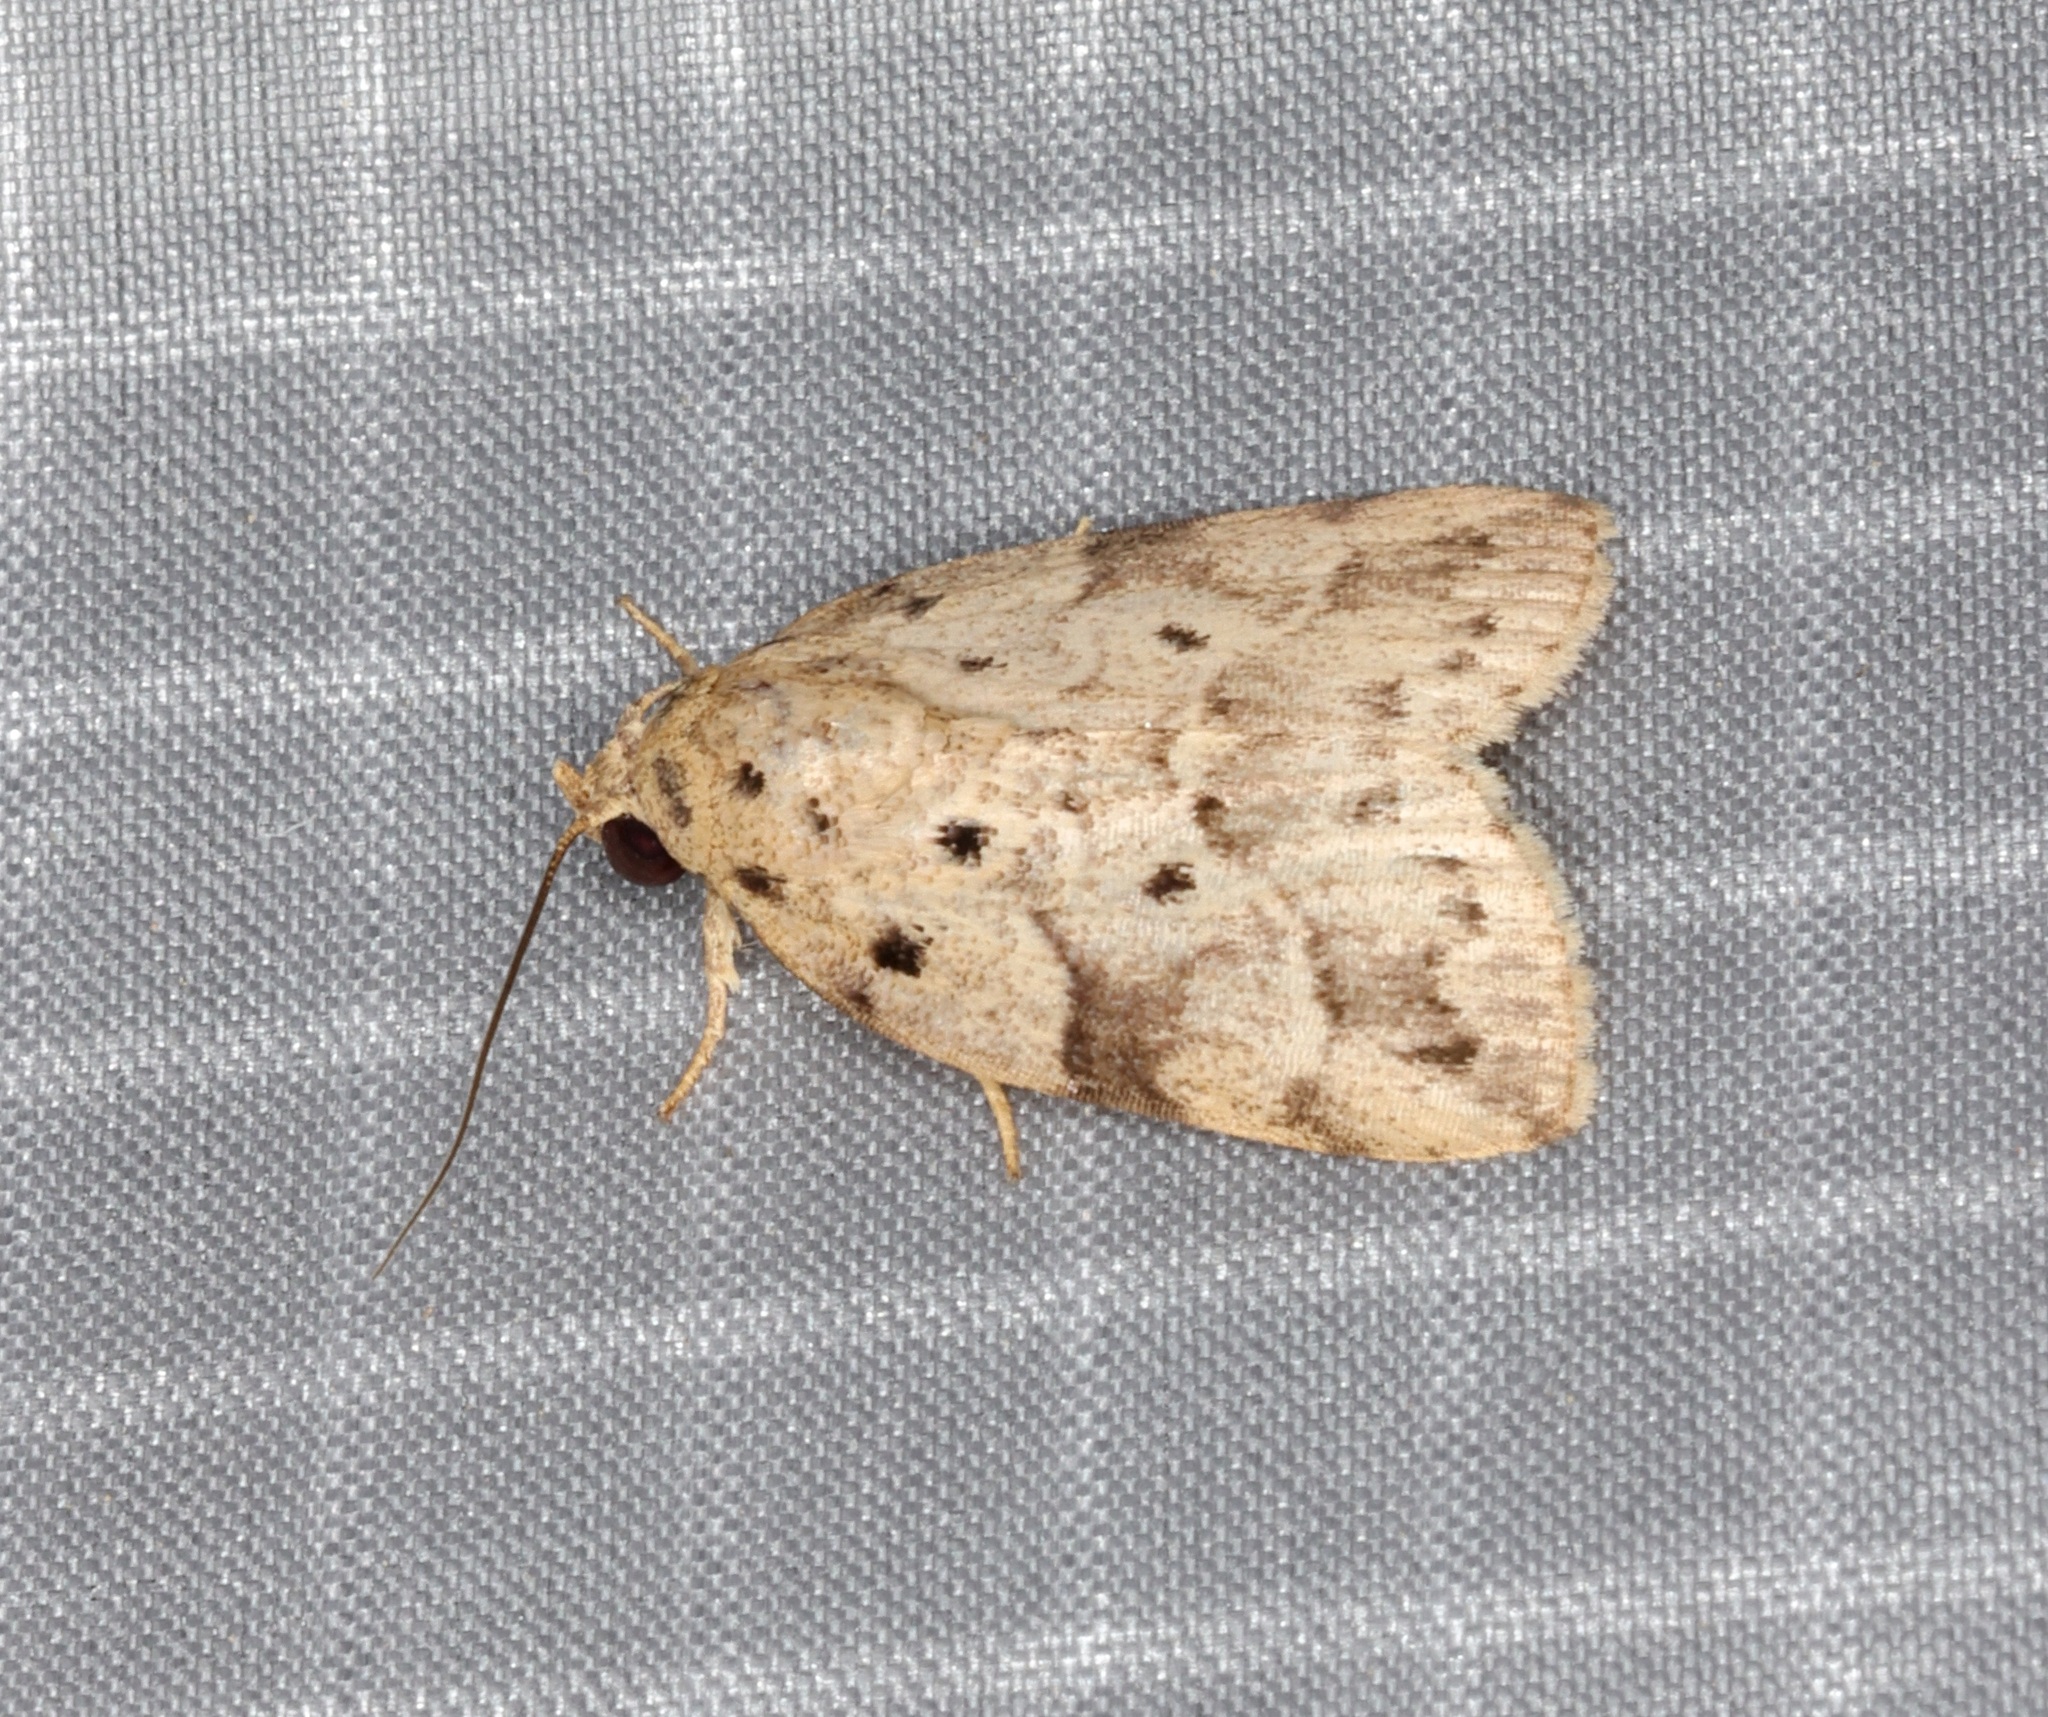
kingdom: Animalia
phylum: Arthropoda
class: Insecta
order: Lepidoptera
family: Nolidae
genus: Giaura
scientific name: Giaura multipunctata
